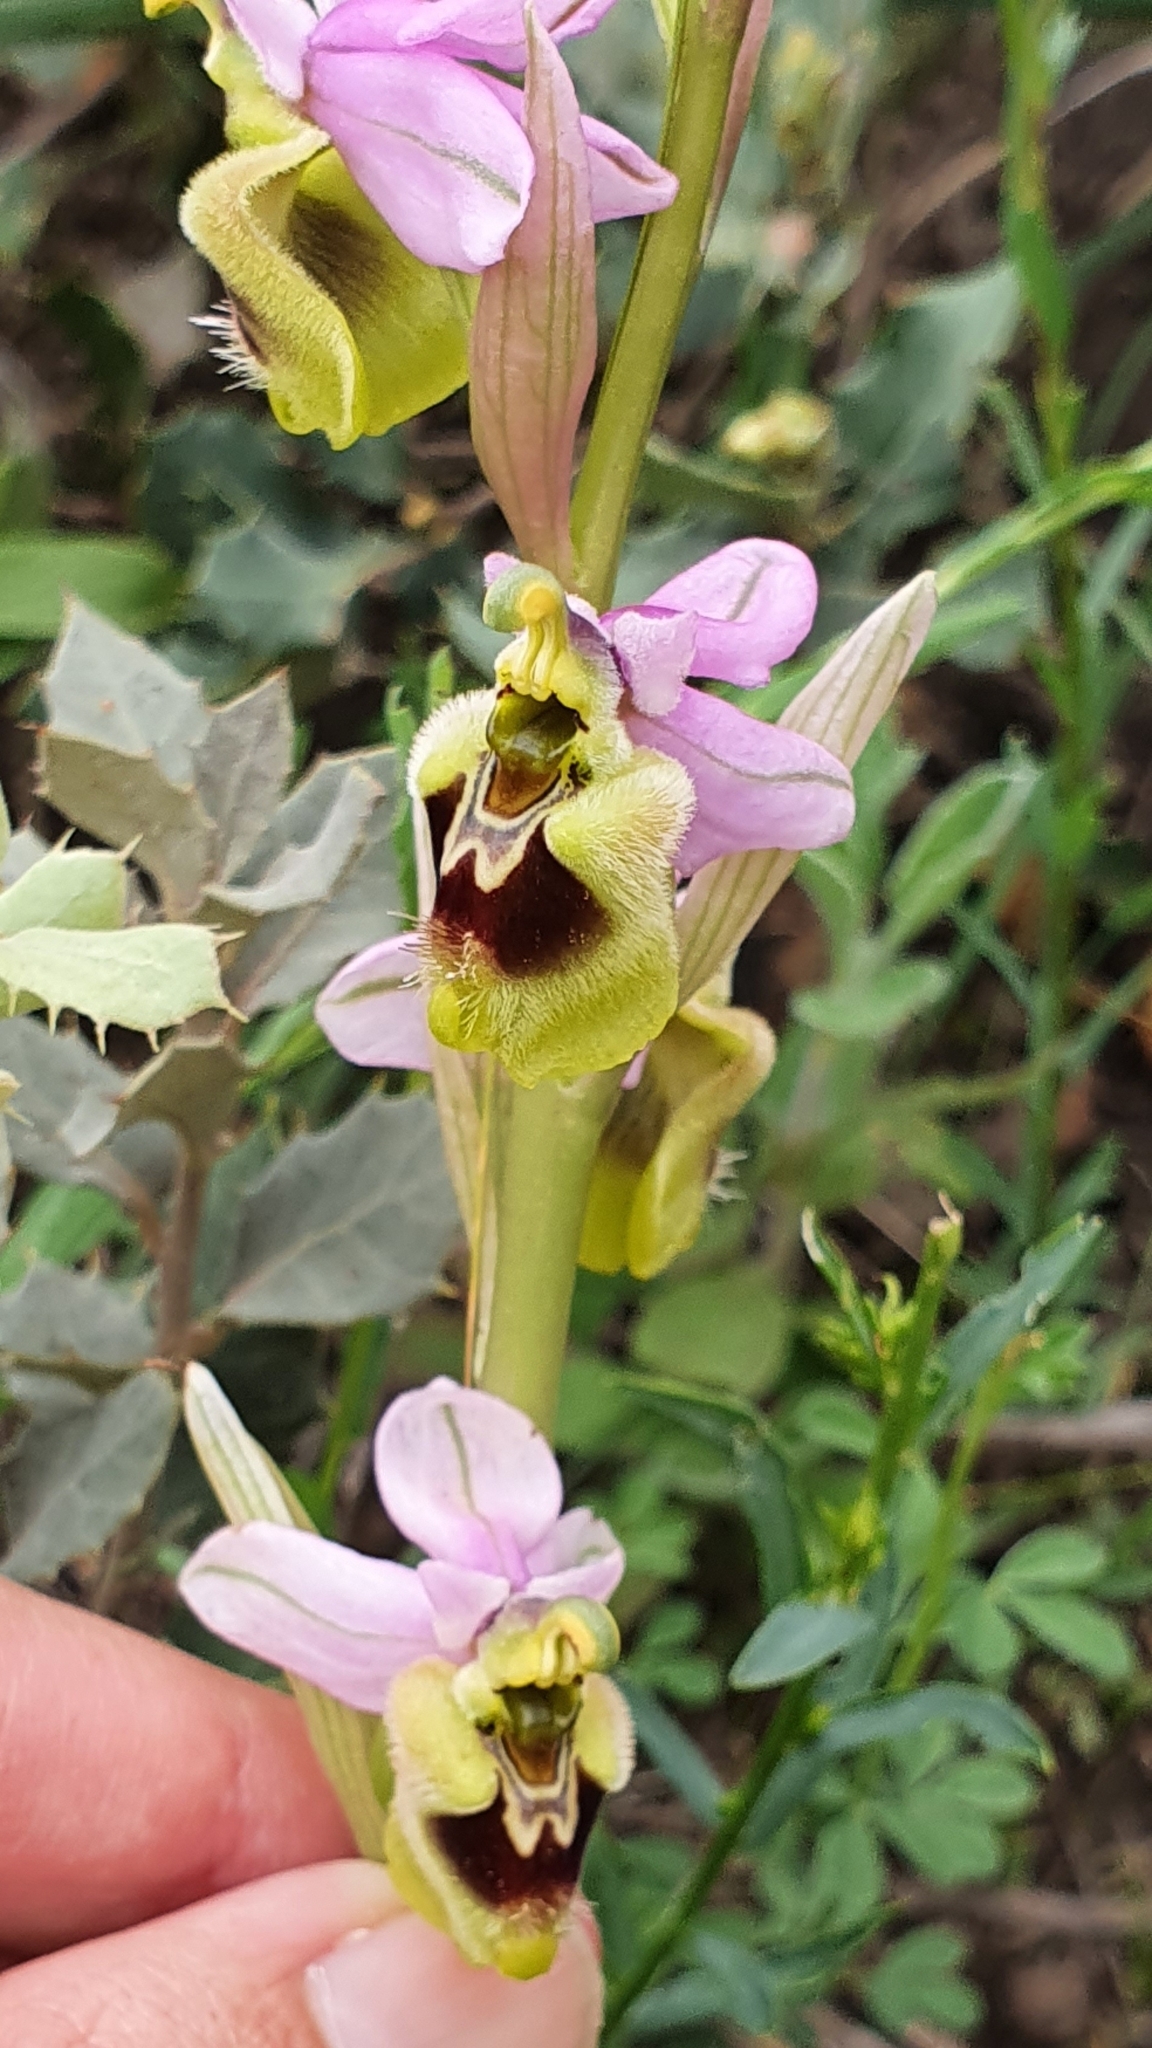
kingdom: Plantae
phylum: Tracheophyta
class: Liliopsida
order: Asparagales
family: Orchidaceae
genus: Ophrys
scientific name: Ophrys tenthredinifera
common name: Sawfly orchid
